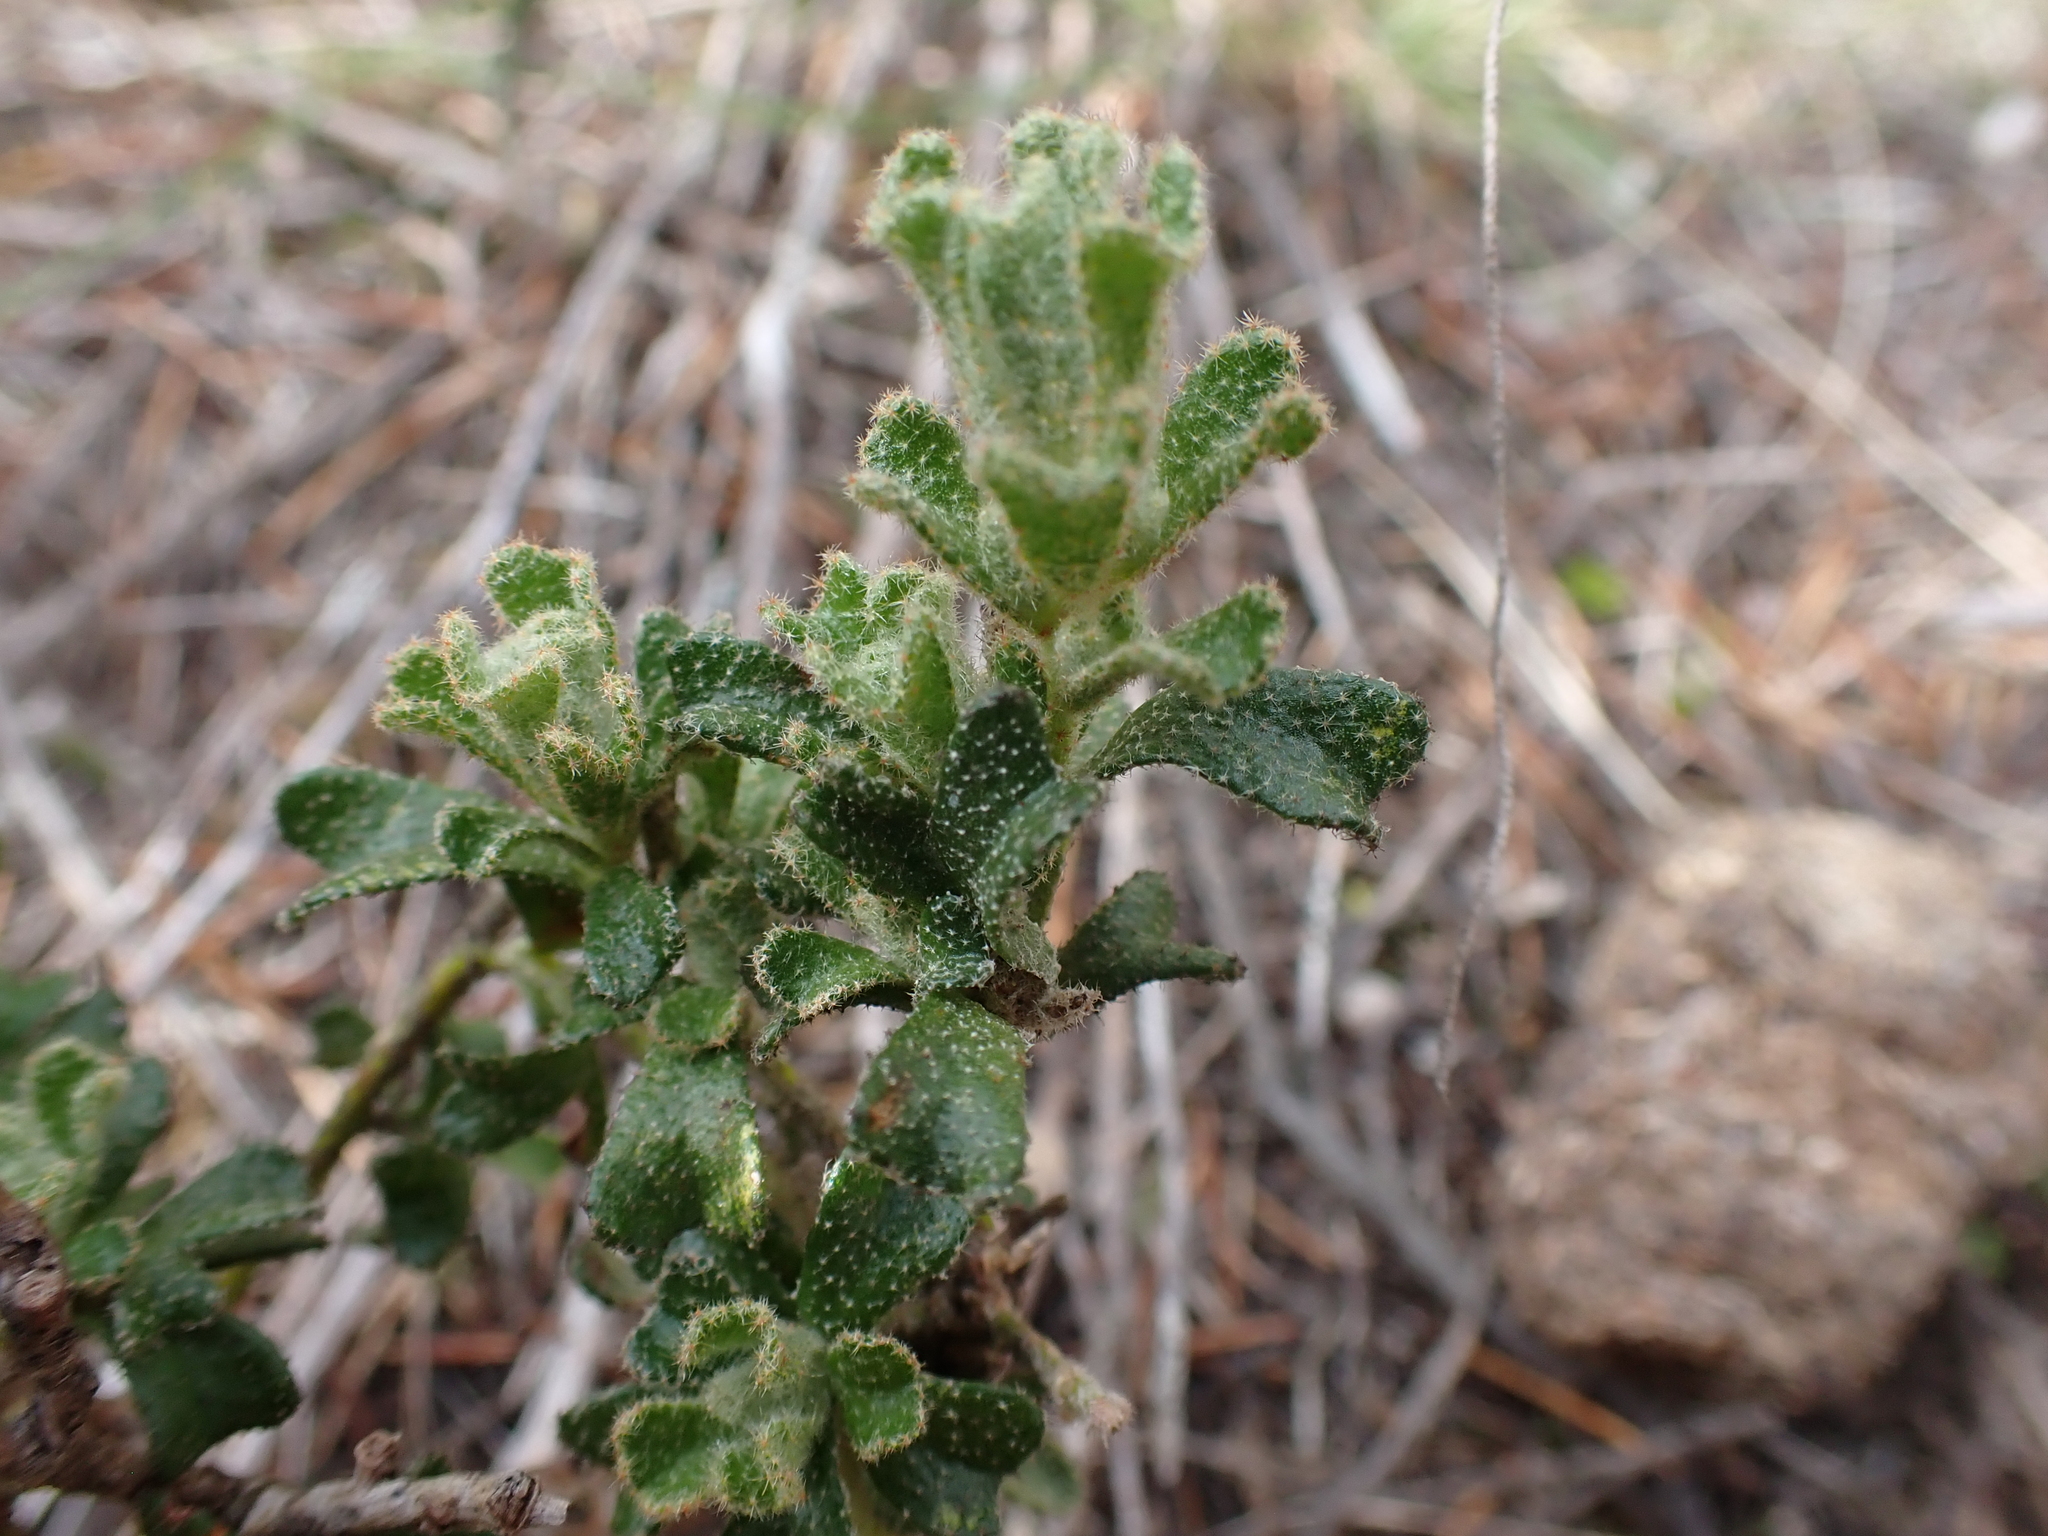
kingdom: Plantae
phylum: Tracheophyta
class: Magnoliopsida
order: Sapindales
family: Rutaceae
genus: Asterolasia
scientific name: Asterolasia phebalioides
